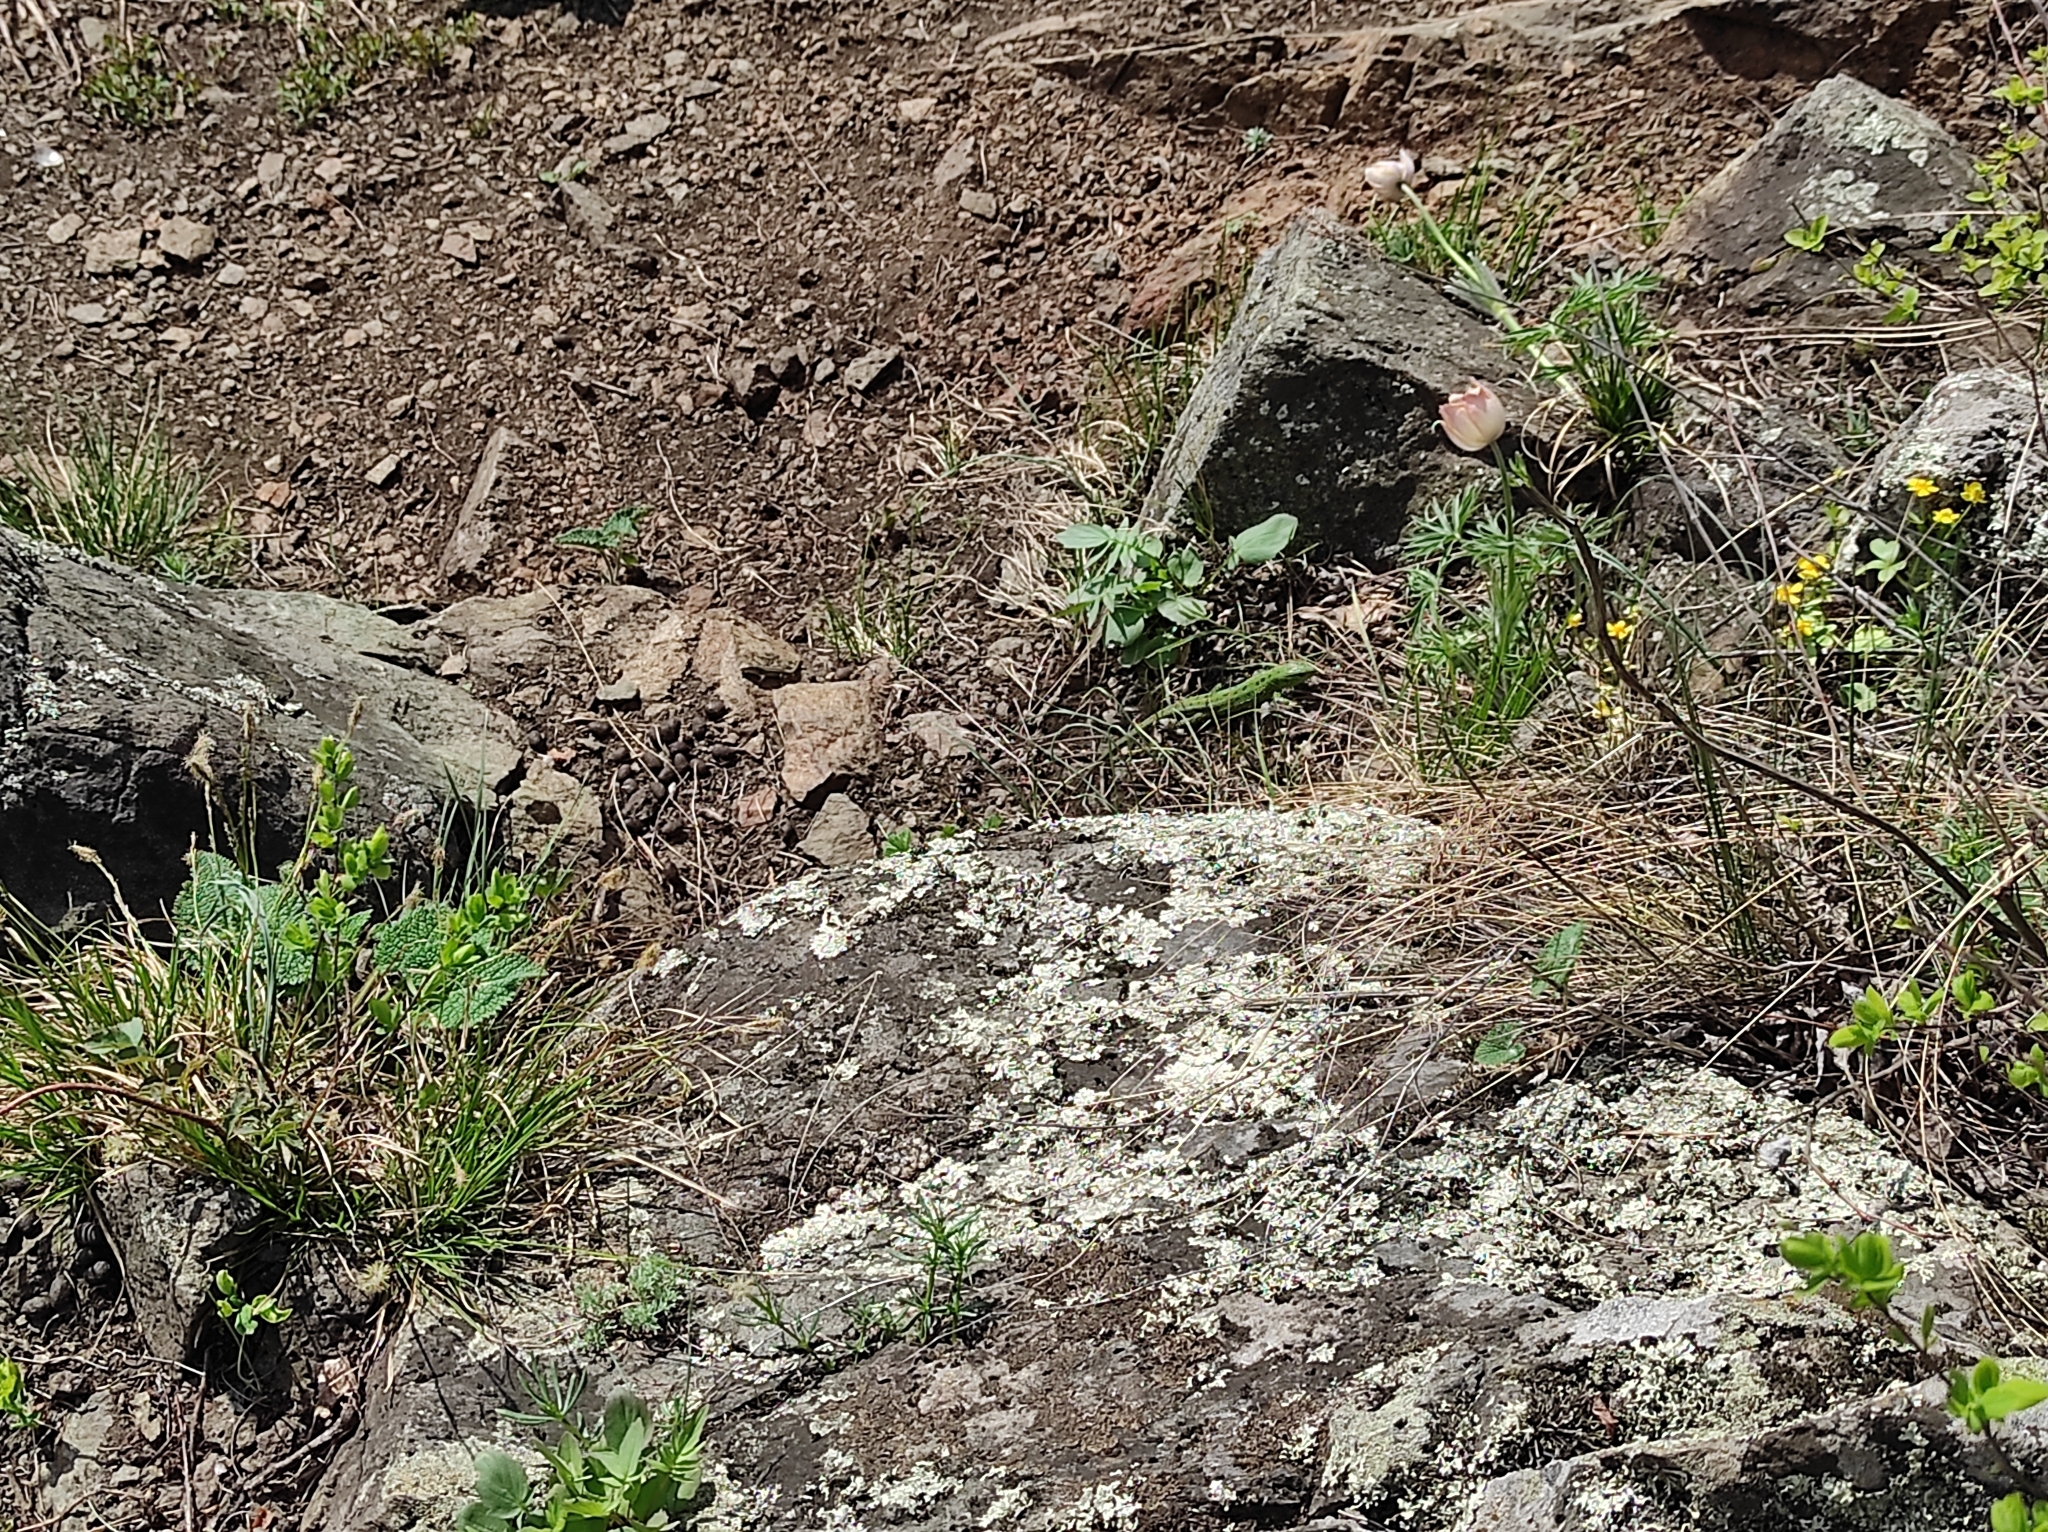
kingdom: Animalia
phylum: Chordata
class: Squamata
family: Lacertidae
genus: Lacerta
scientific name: Lacerta agilis
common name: Sand lizard
